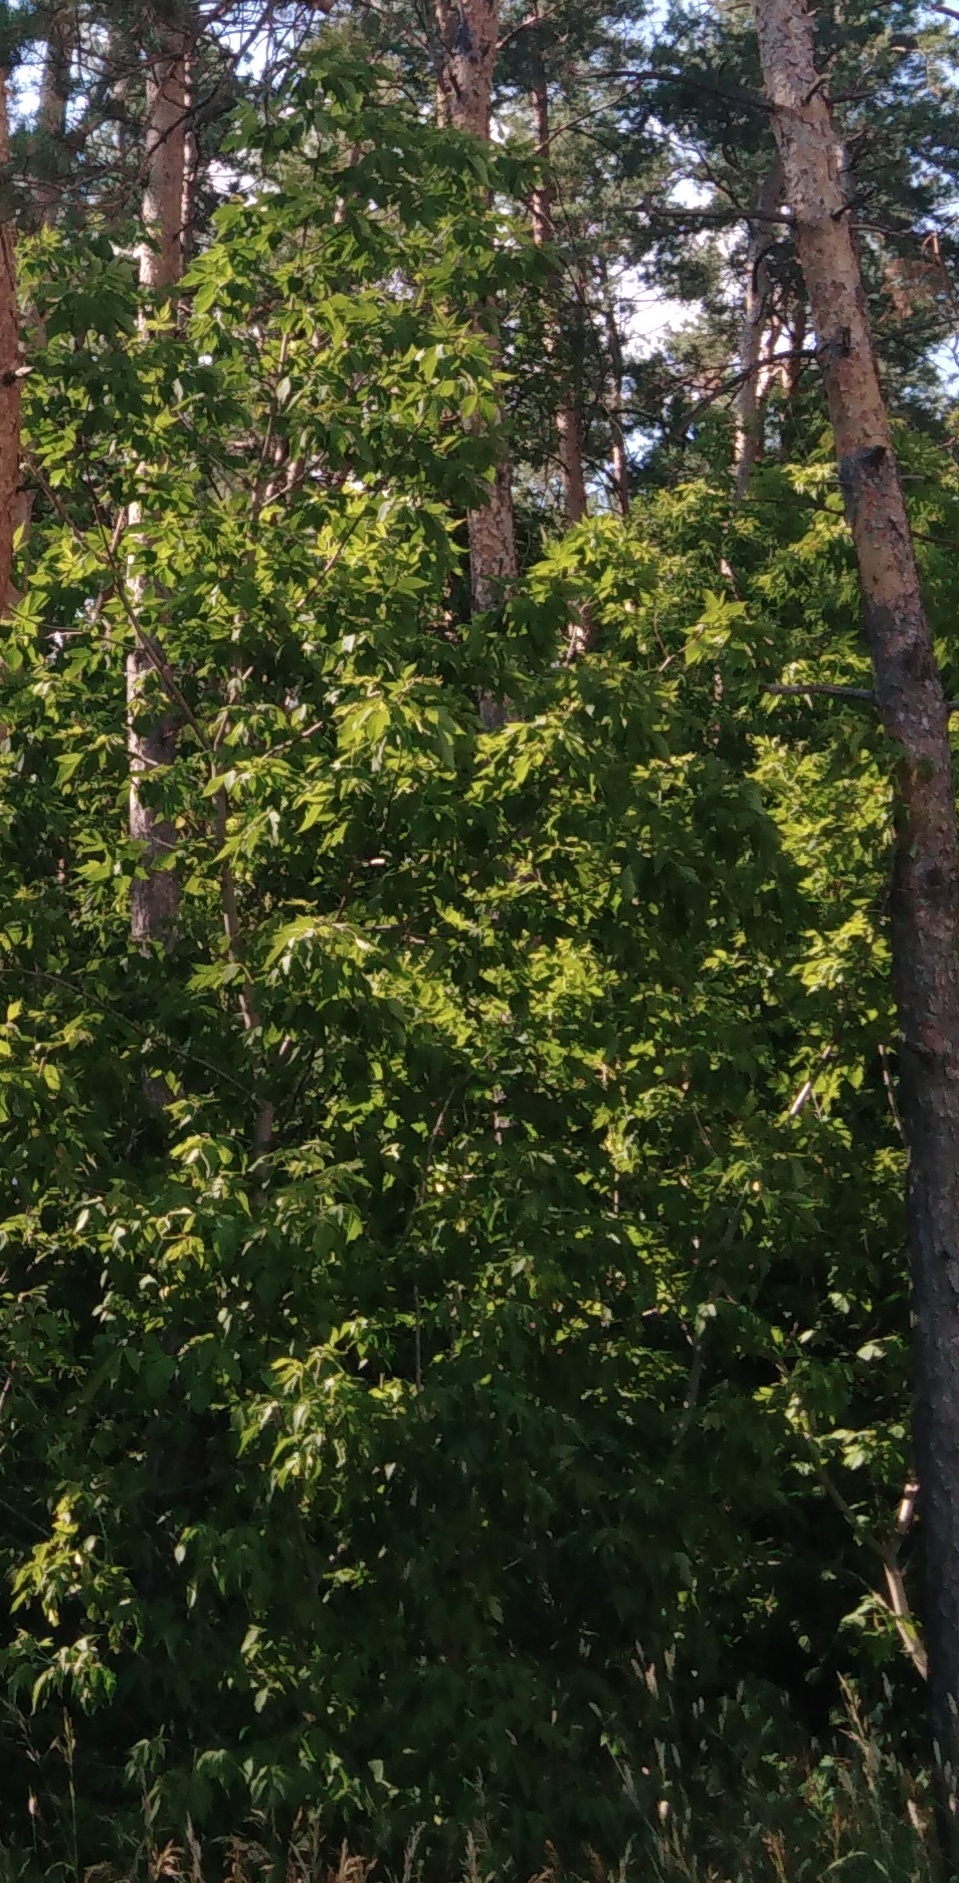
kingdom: Plantae
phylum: Tracheophyta
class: Magnoliopsida
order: Sapindales
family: Sapindaceae
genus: Acer
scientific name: Acer negundo
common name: Ashleaf maple
